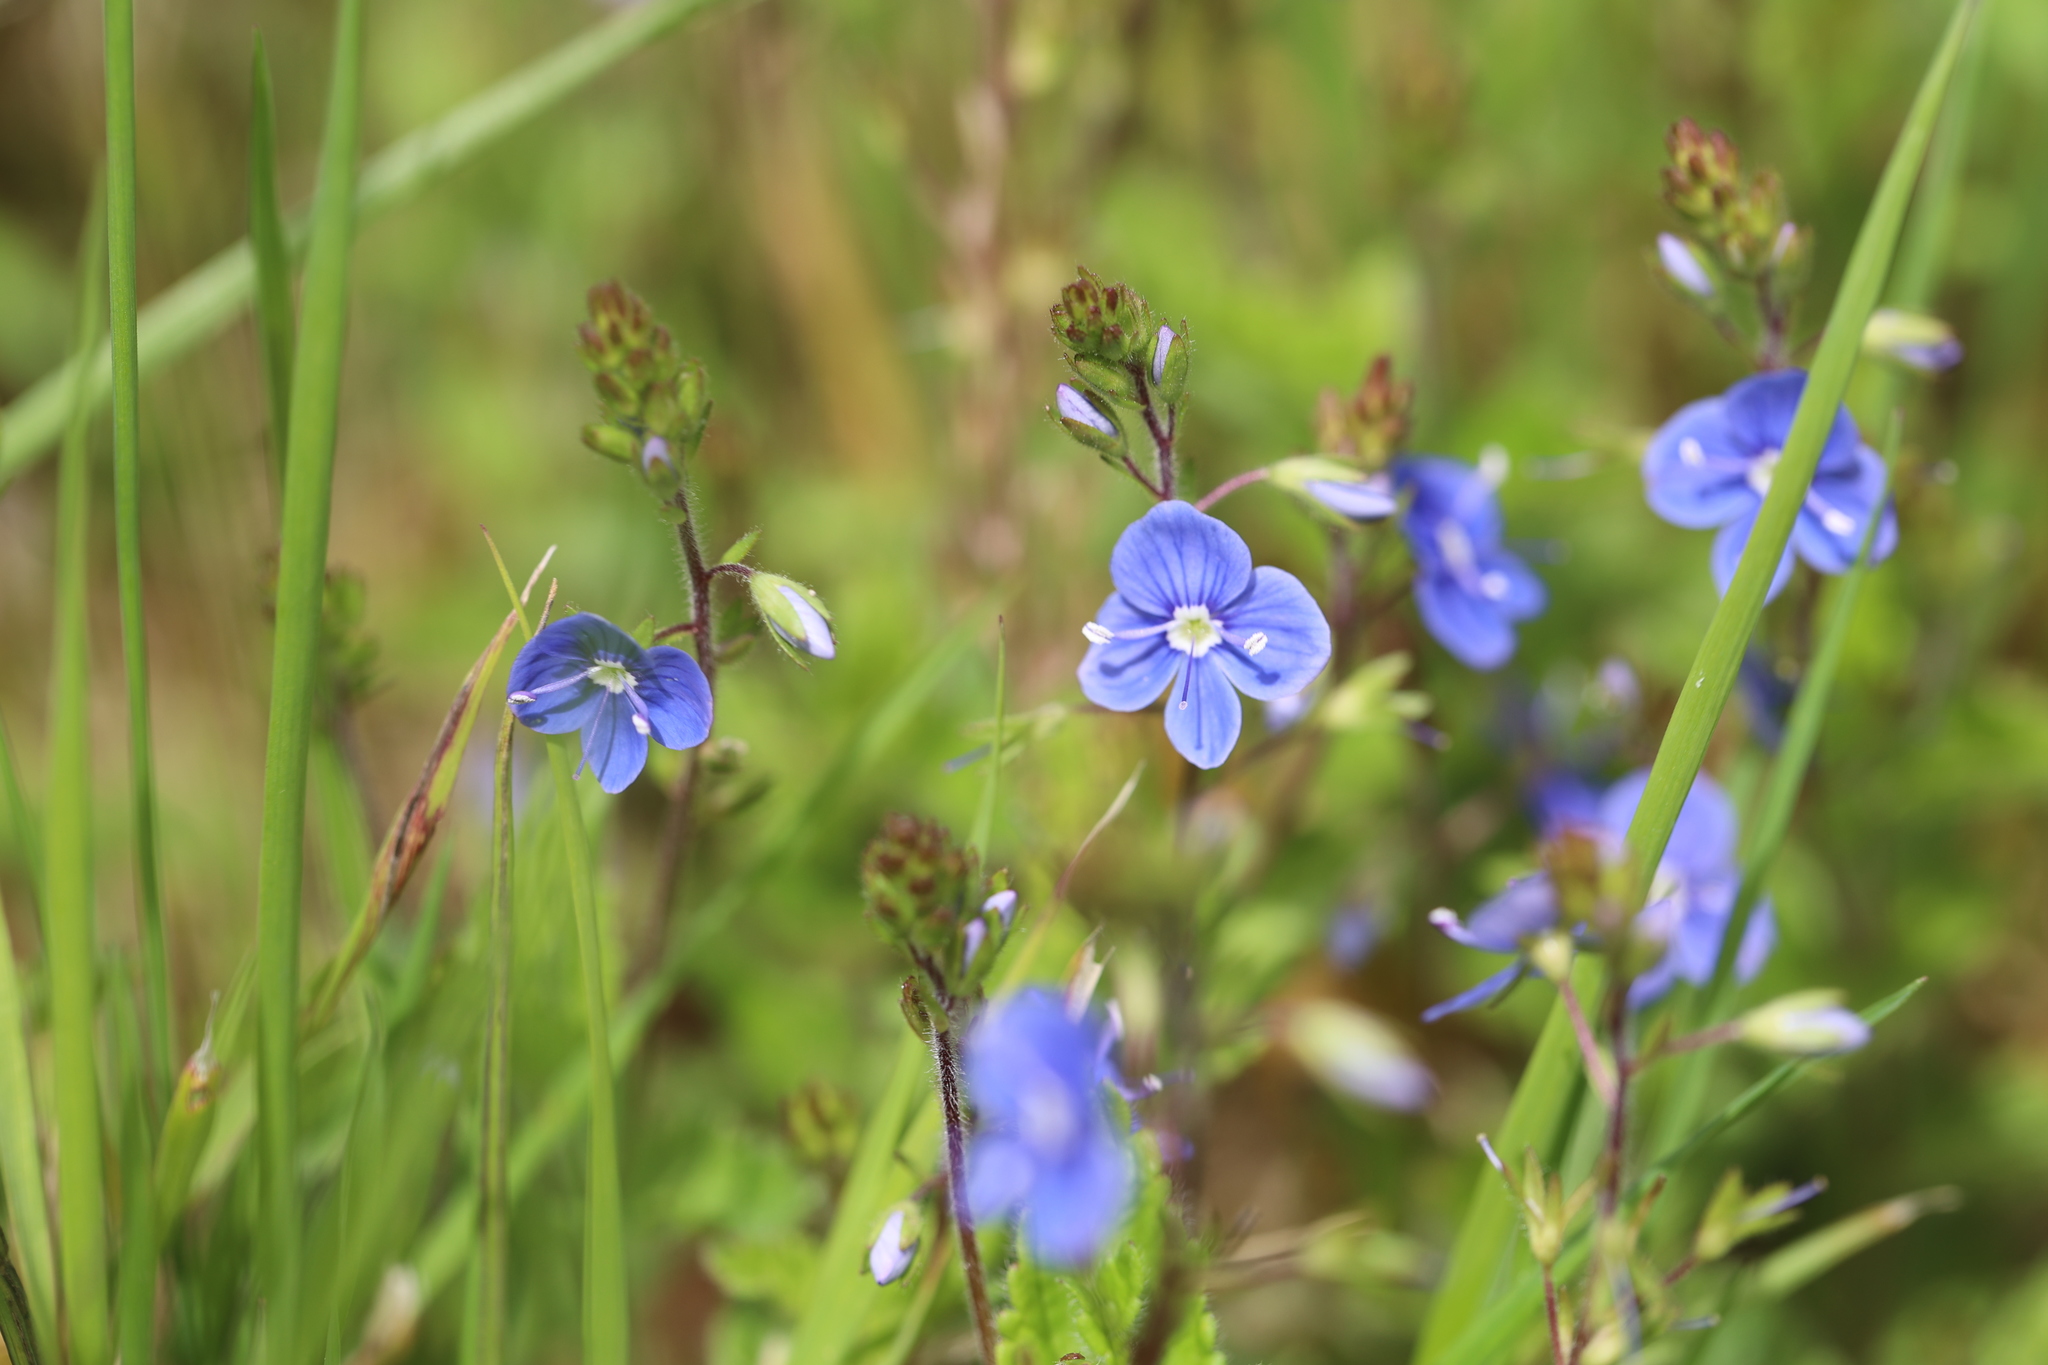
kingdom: Plantae
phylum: Tracheophyta
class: Magnoliopsida
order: Lamiales
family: Plantaginaceae
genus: Veronica
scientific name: Veronica chamaedrys
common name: Germander speedwell
